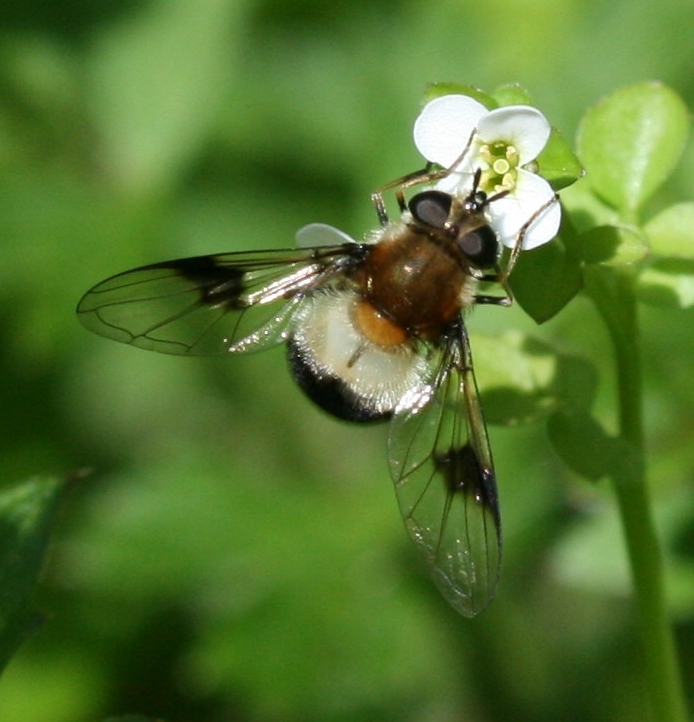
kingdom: Animalia
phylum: Arthropoda
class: Insecta
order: Diptera
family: Syrphidae
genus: Leucozona
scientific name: Leucozona lucorum
